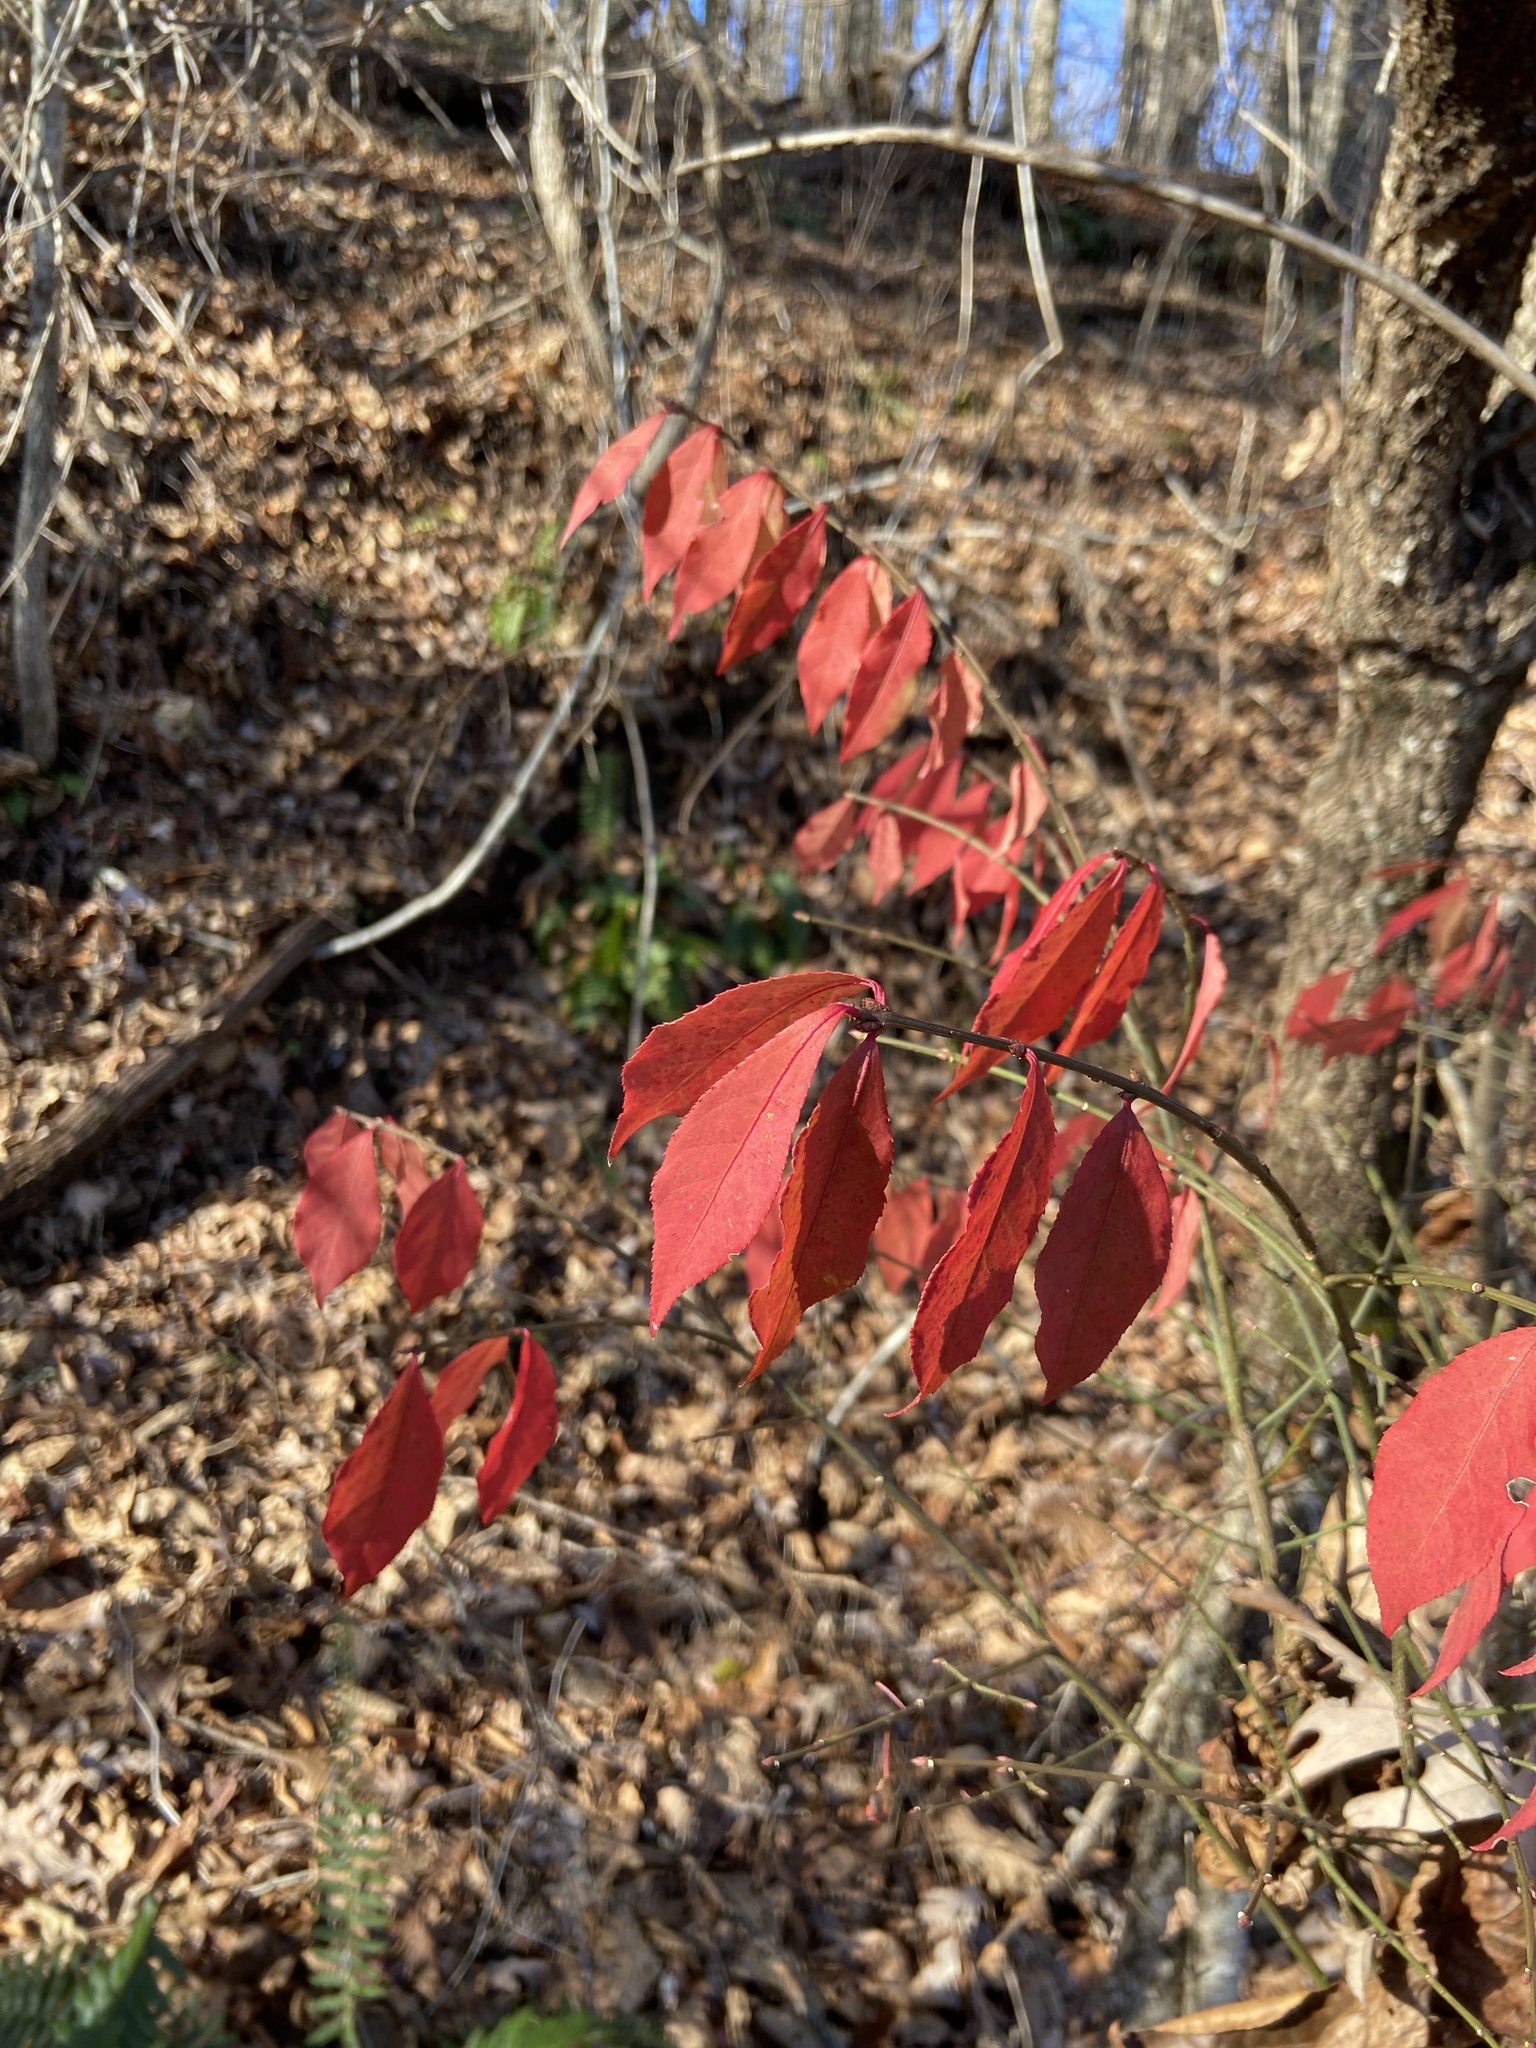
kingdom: Plantae
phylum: Tracheophyta
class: Magnoliopsida
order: Celastrales
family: Celastraceae
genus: Euonymus
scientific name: Euonymus alatus
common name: Winged euonymus
